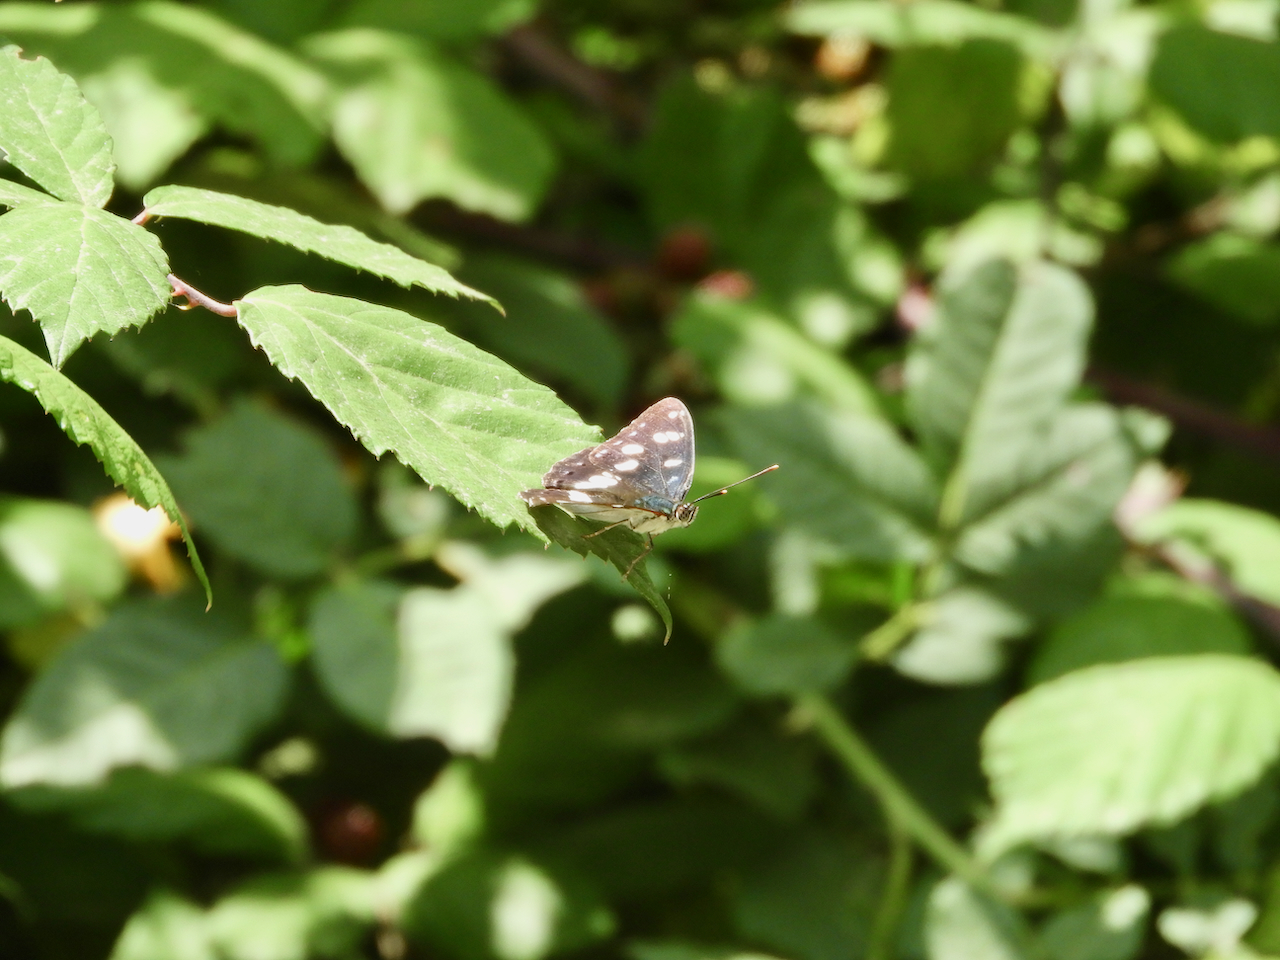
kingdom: Animalia
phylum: Arthropoda
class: Insecta
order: Lepidoptera
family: Nymphalidae
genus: Limenitis
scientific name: Limenitis reducta
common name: Southern white admiral
